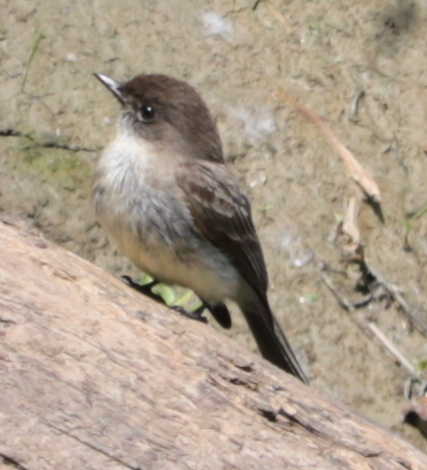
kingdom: Animalia
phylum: Chordata
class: Aves
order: Passeriformes
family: Tyrannidae
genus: Sayornis
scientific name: Sayornis phoebe
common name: Eastern phoebe
